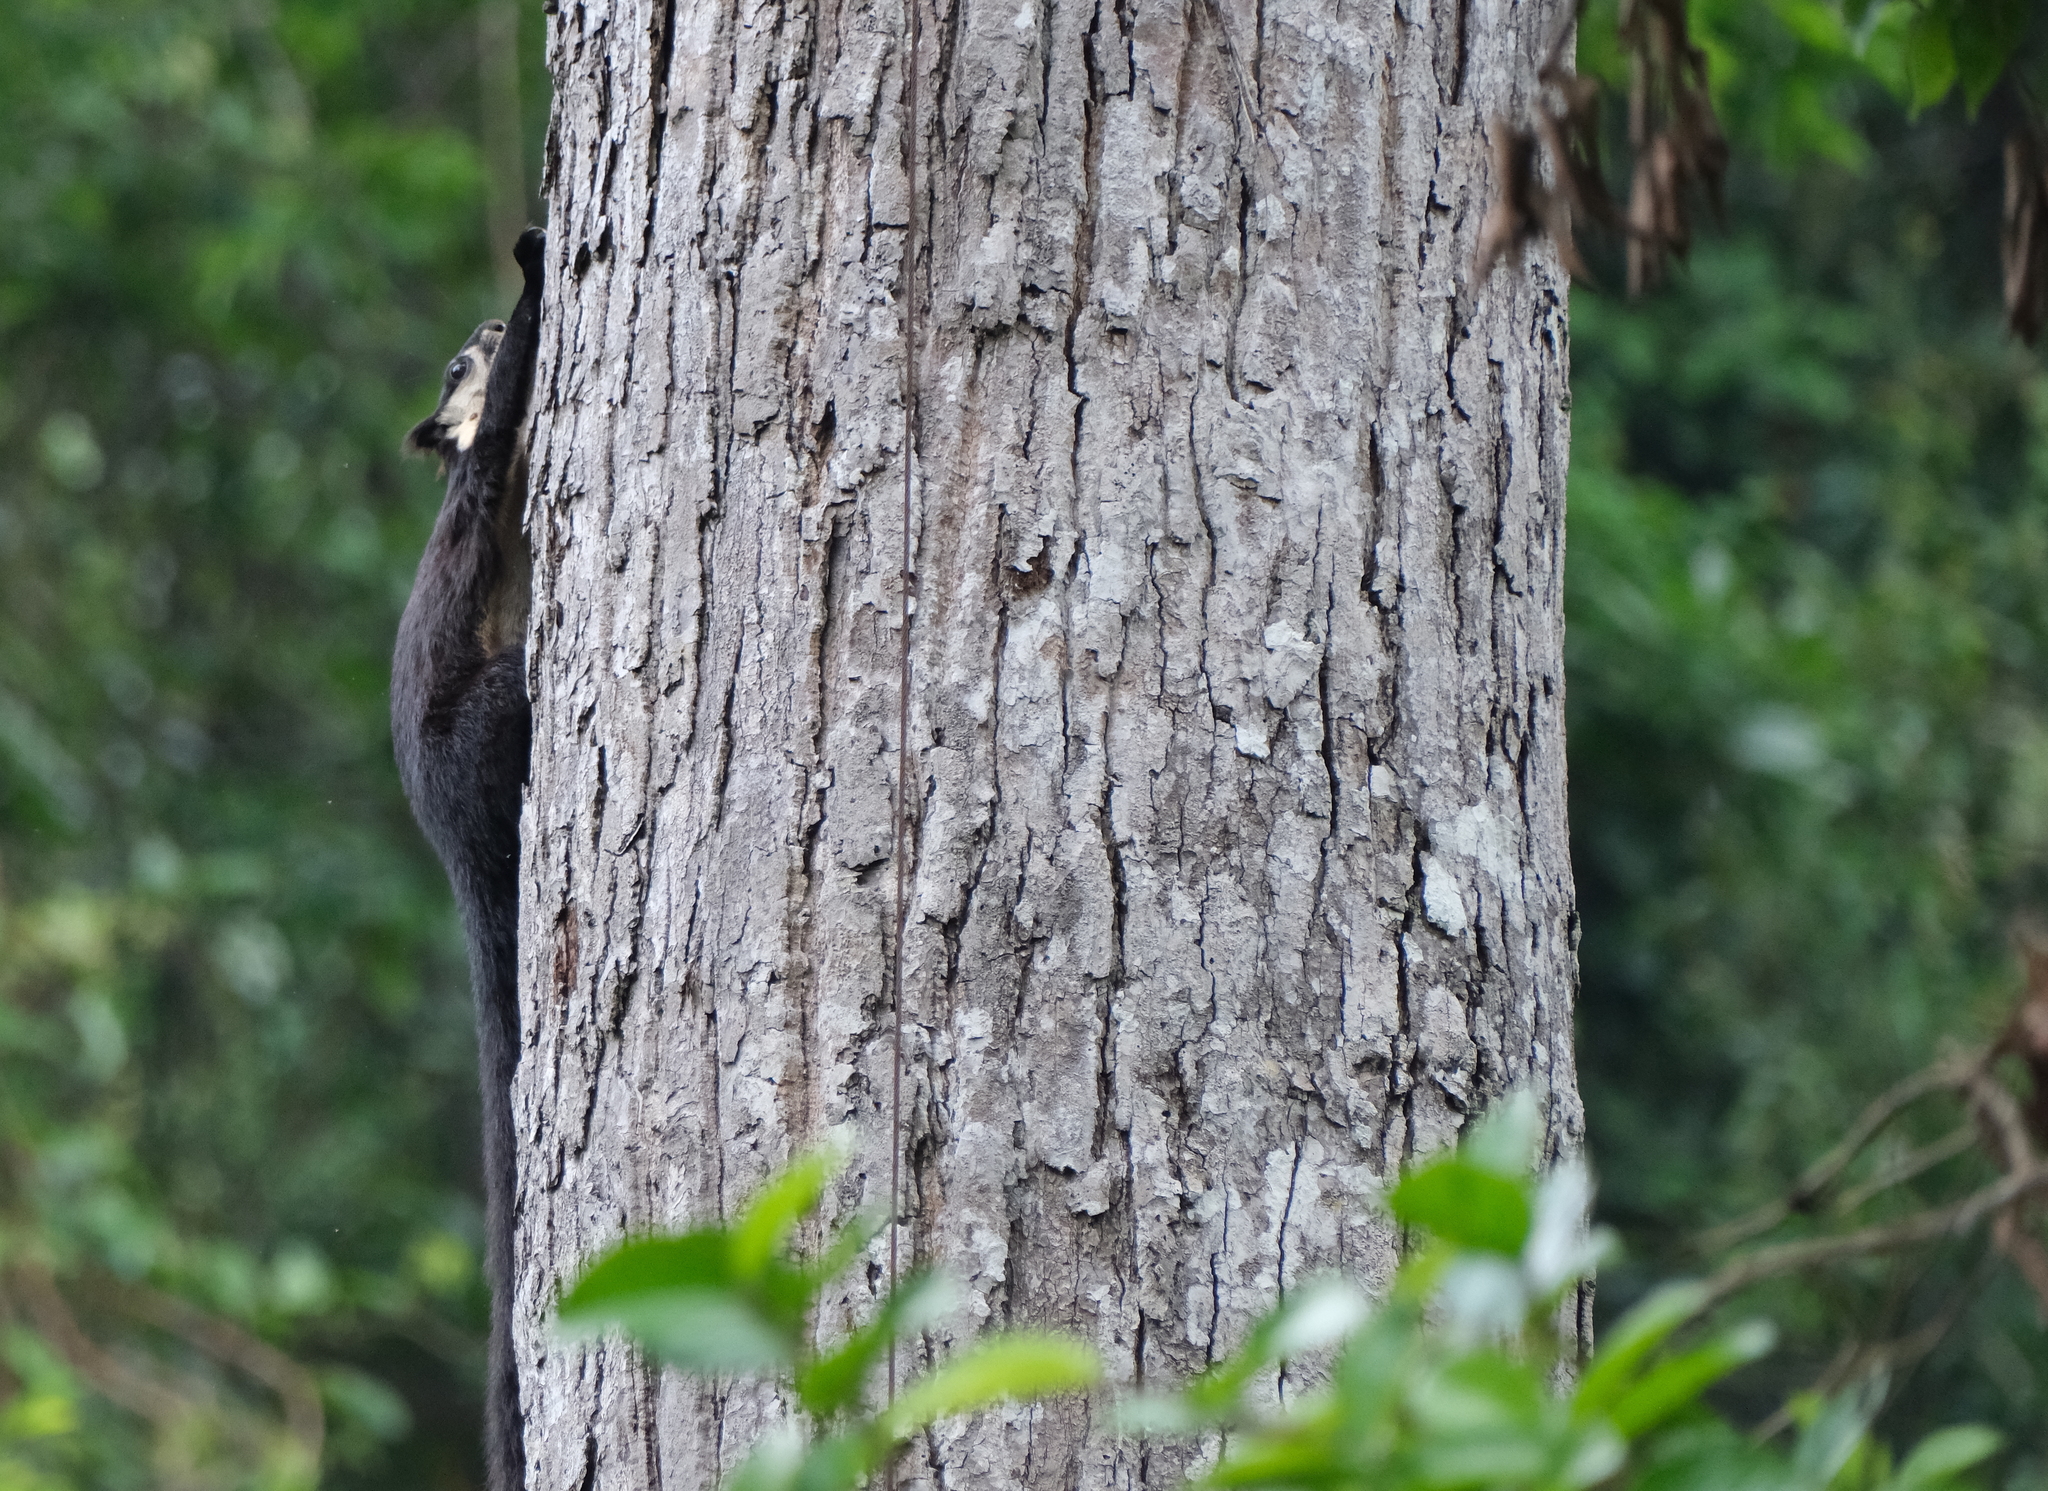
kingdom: Animalia
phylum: Chordata
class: Mammalia
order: Rodentia
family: Sciuridae
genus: Ratufa
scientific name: Ratufa bicolor
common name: Black giant squirrel
